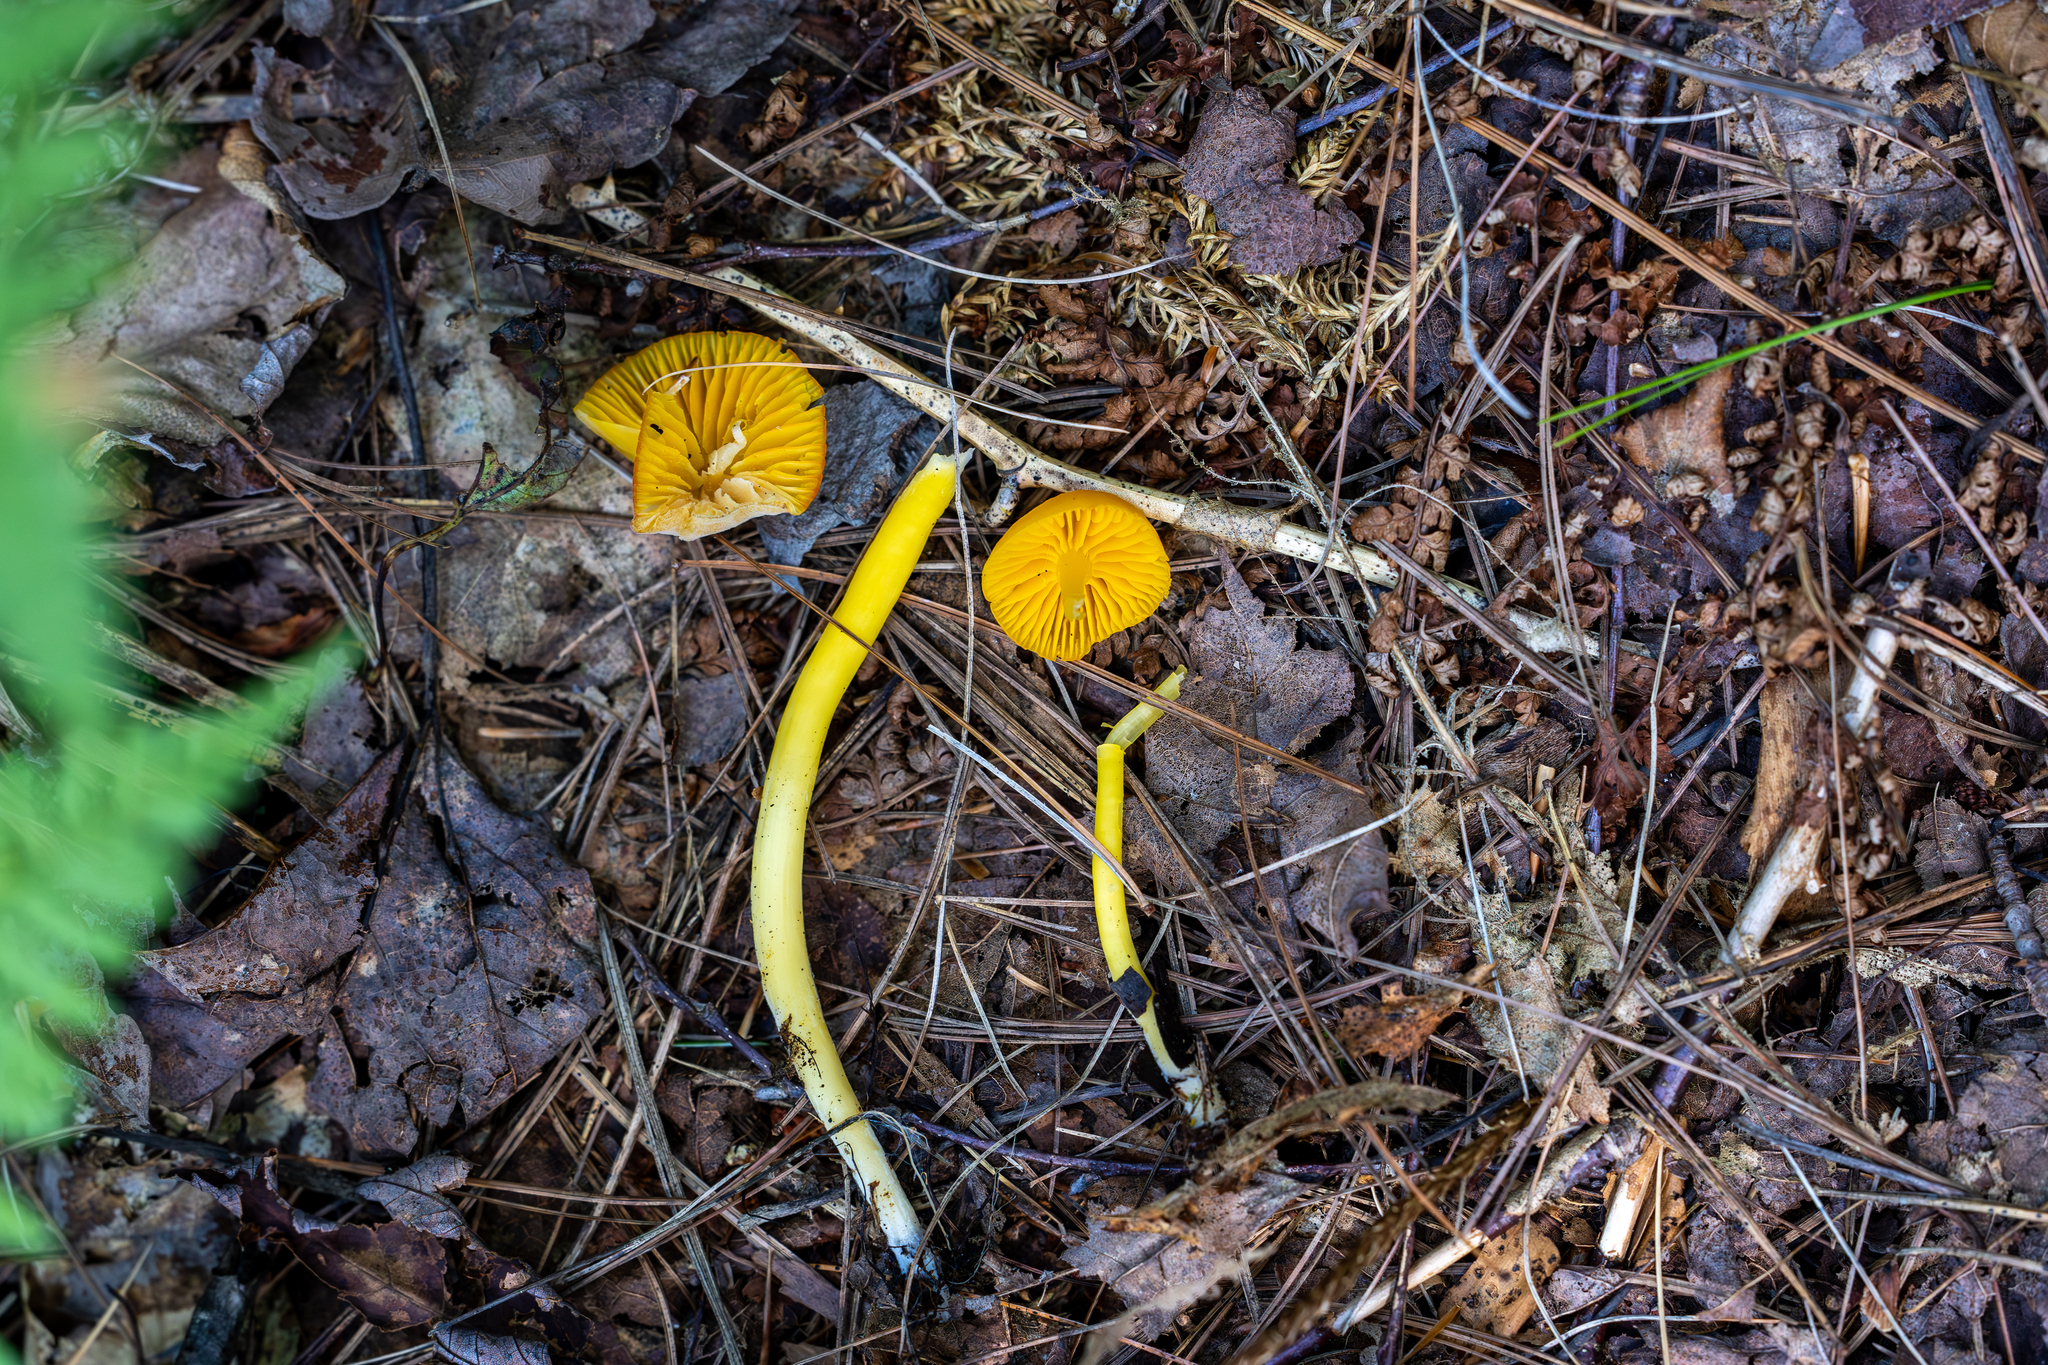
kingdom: Fungi
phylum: Basidiomycota
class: Agaricomycetes
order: Agaricales
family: Hygrophoraceae
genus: Humidicutis
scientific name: Humidicutis marginata
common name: Orange gilled waxcap
